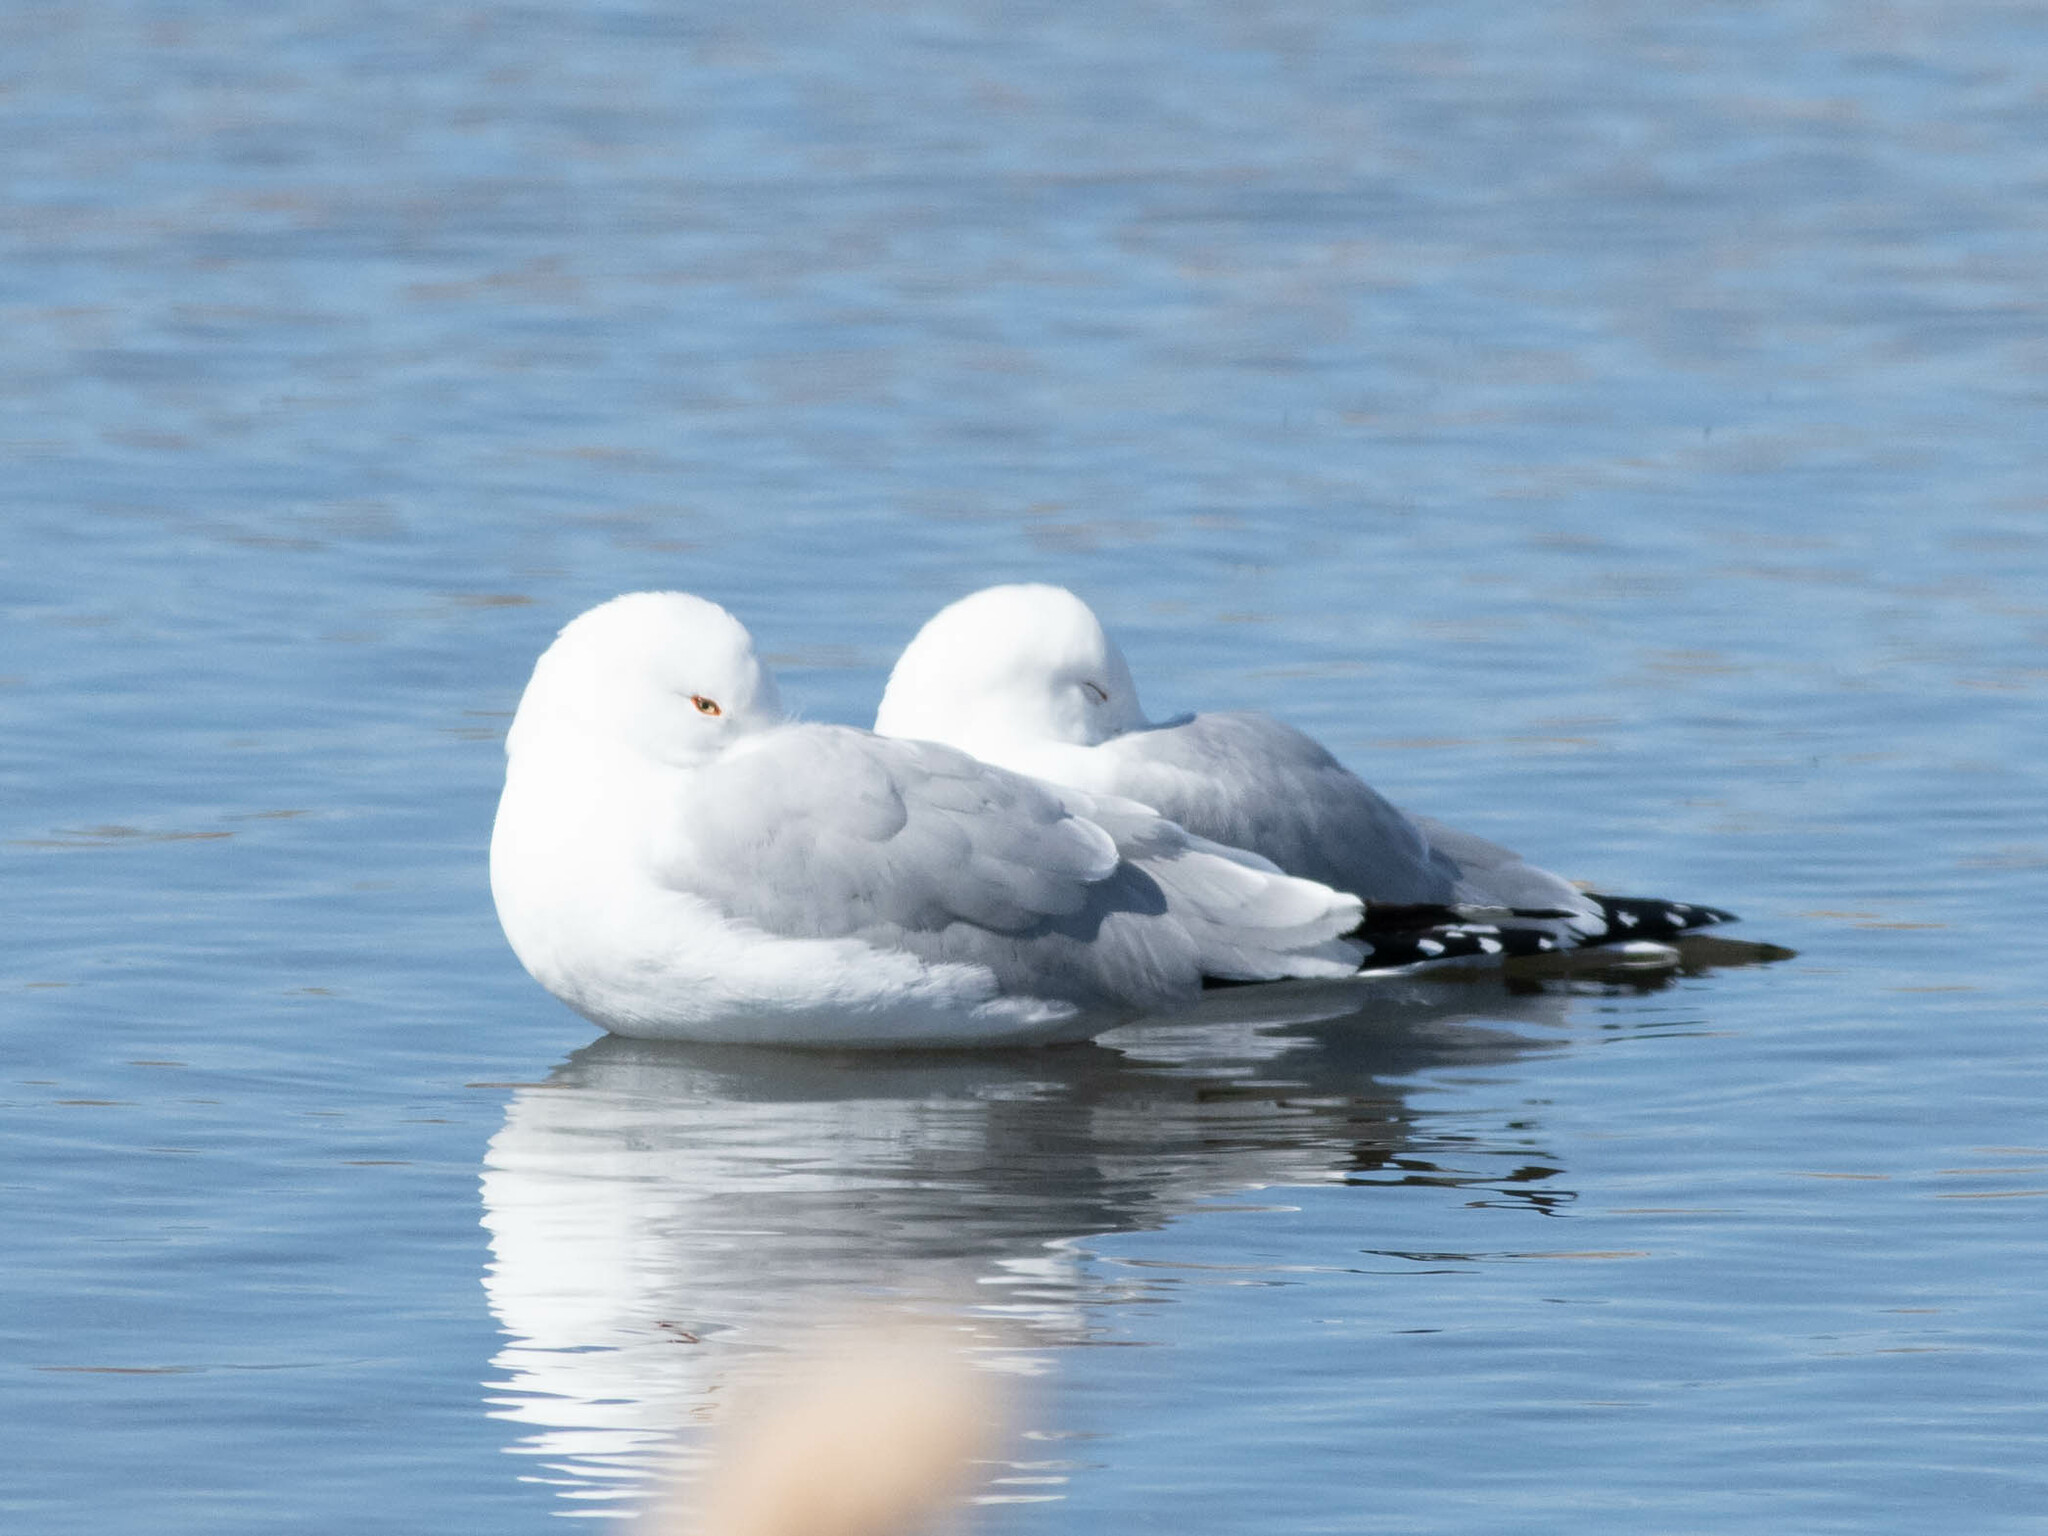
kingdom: Animalia
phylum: Chordata
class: Aves
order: Charadriiformes
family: Laridae
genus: Larus
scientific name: Larus delawarensis
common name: Ring-billed gull
